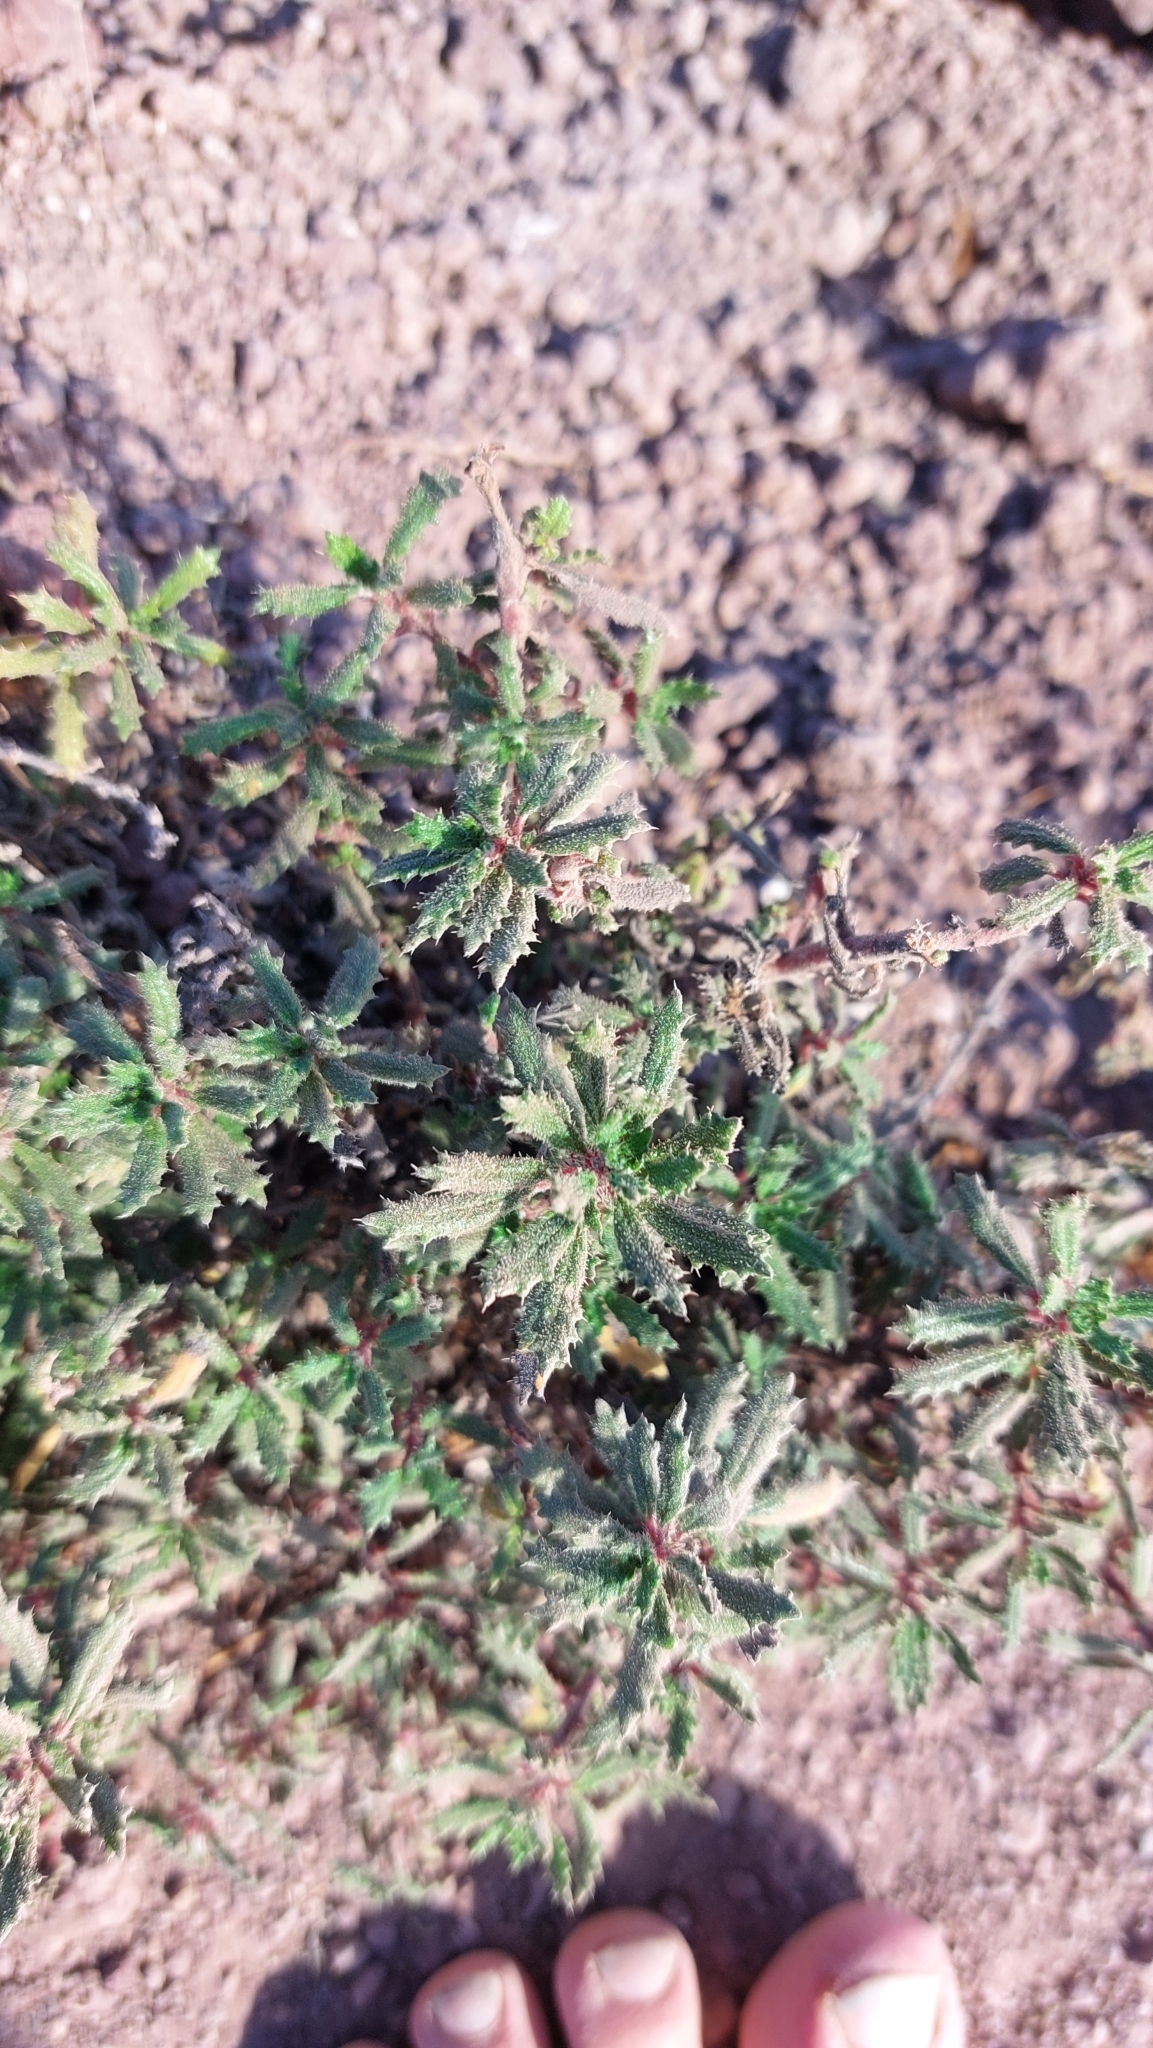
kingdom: Plantae
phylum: Tracheophyta
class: Magnoliopsida
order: Rosales
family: Urticaceae
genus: Forsskaolea
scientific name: Forsskaolea angustifolia
